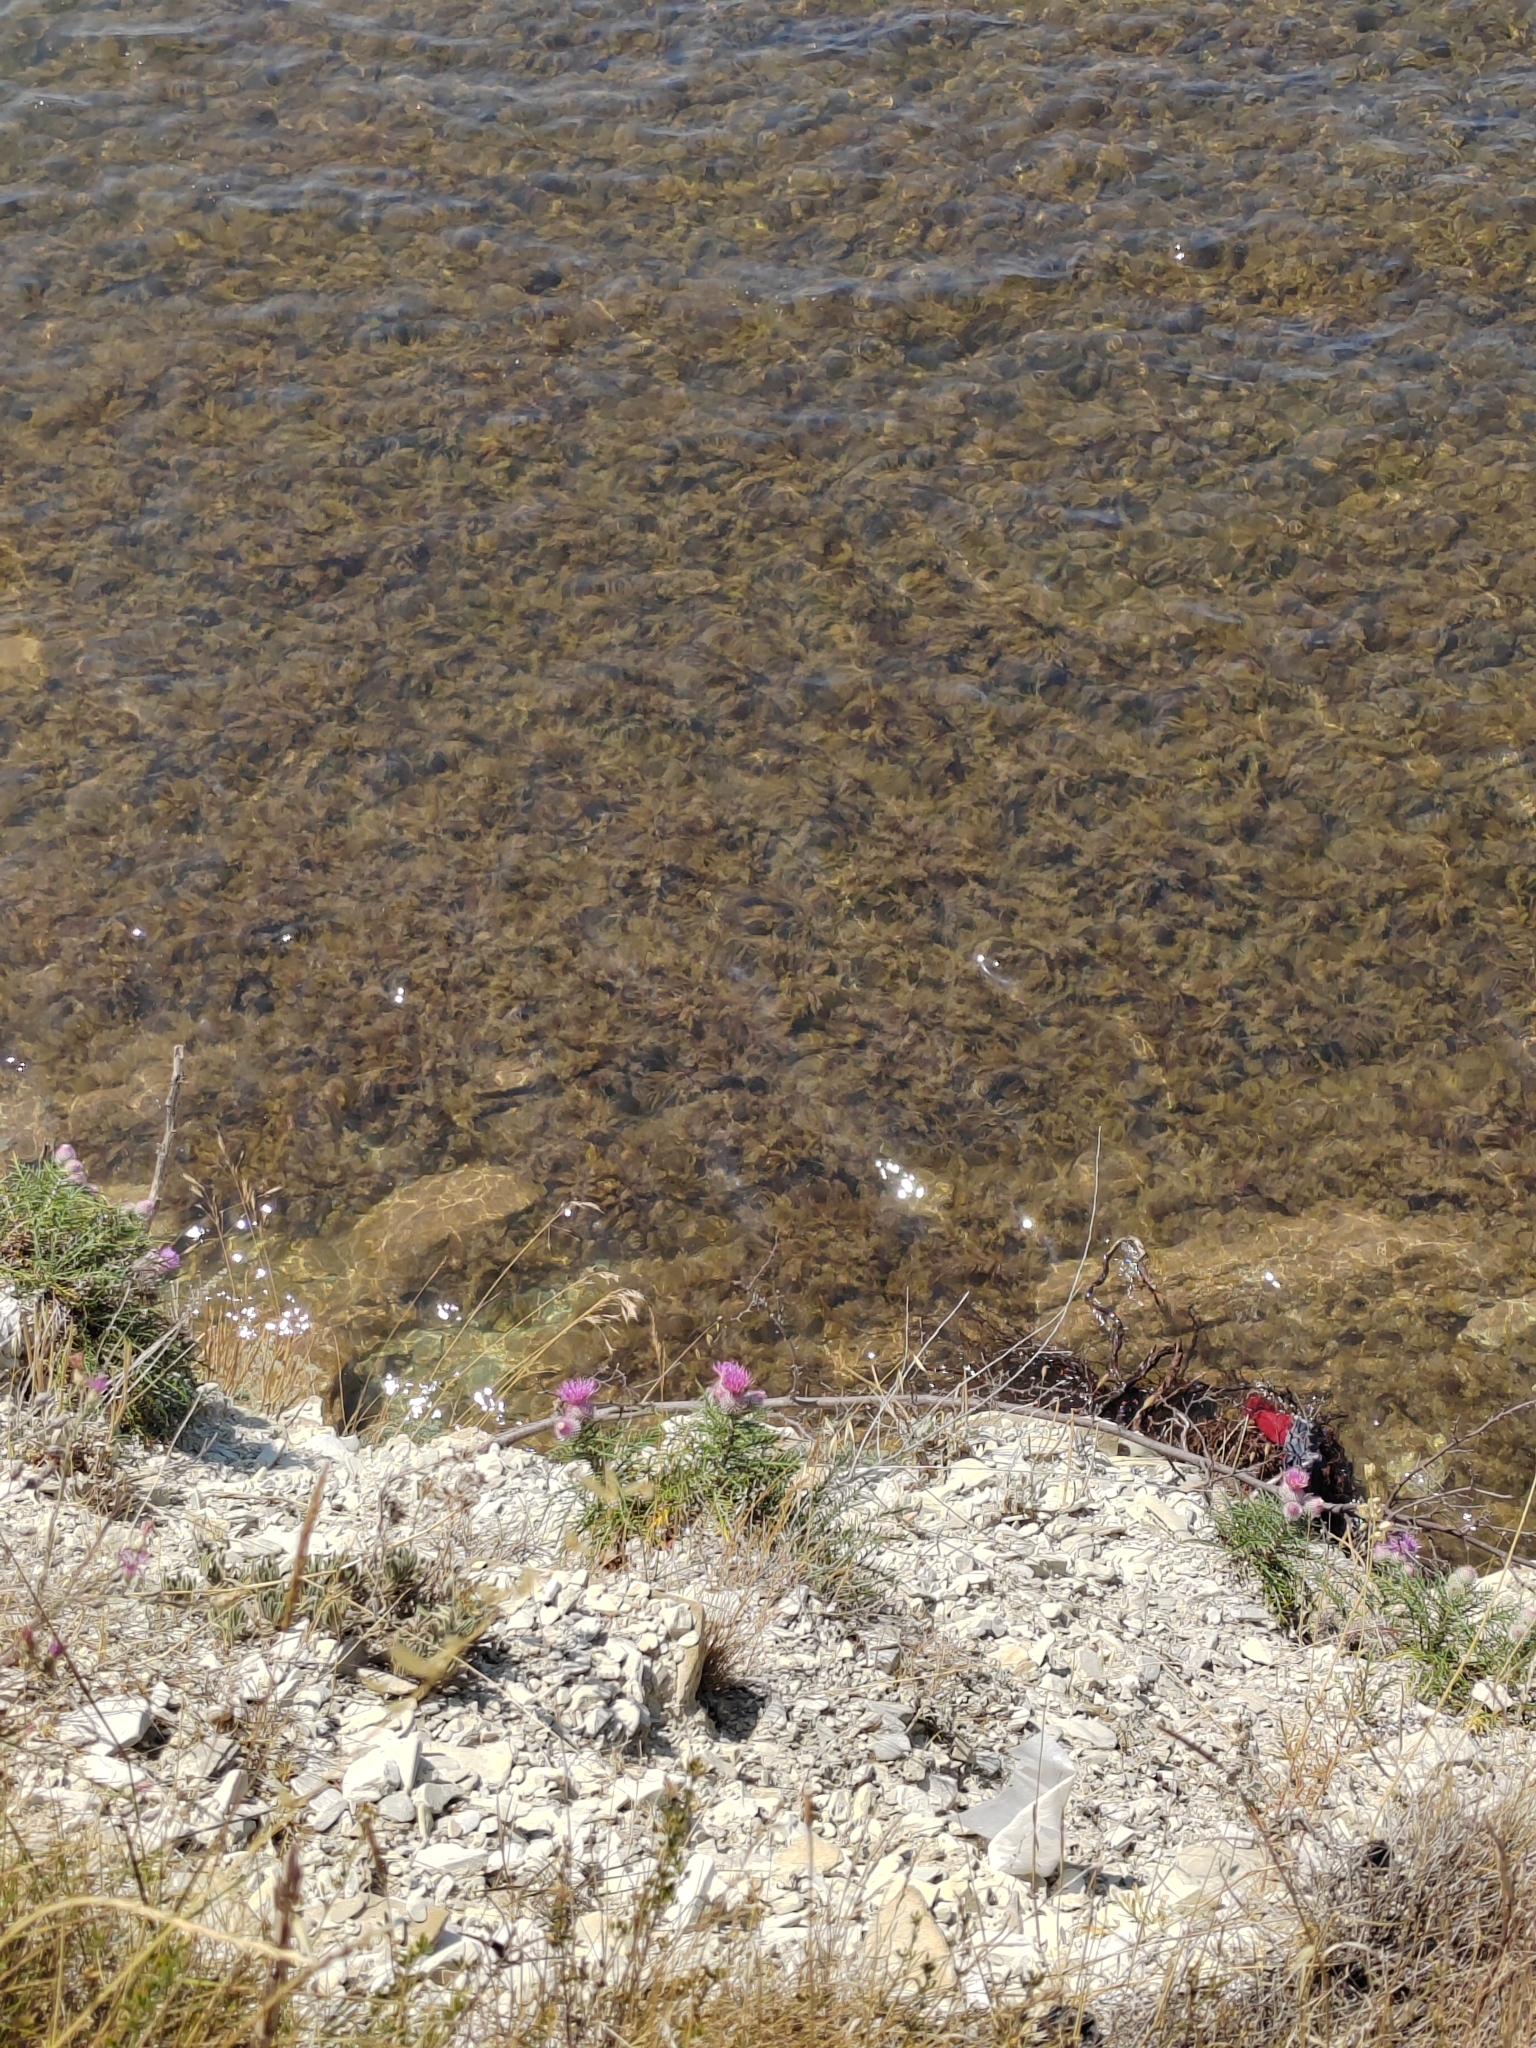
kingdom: Plantae
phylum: Tracheophyta
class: Magnoliopsida
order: Asterales
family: Asteraceae
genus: Ptilostemon
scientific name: Ptilostemon echinocephalus
